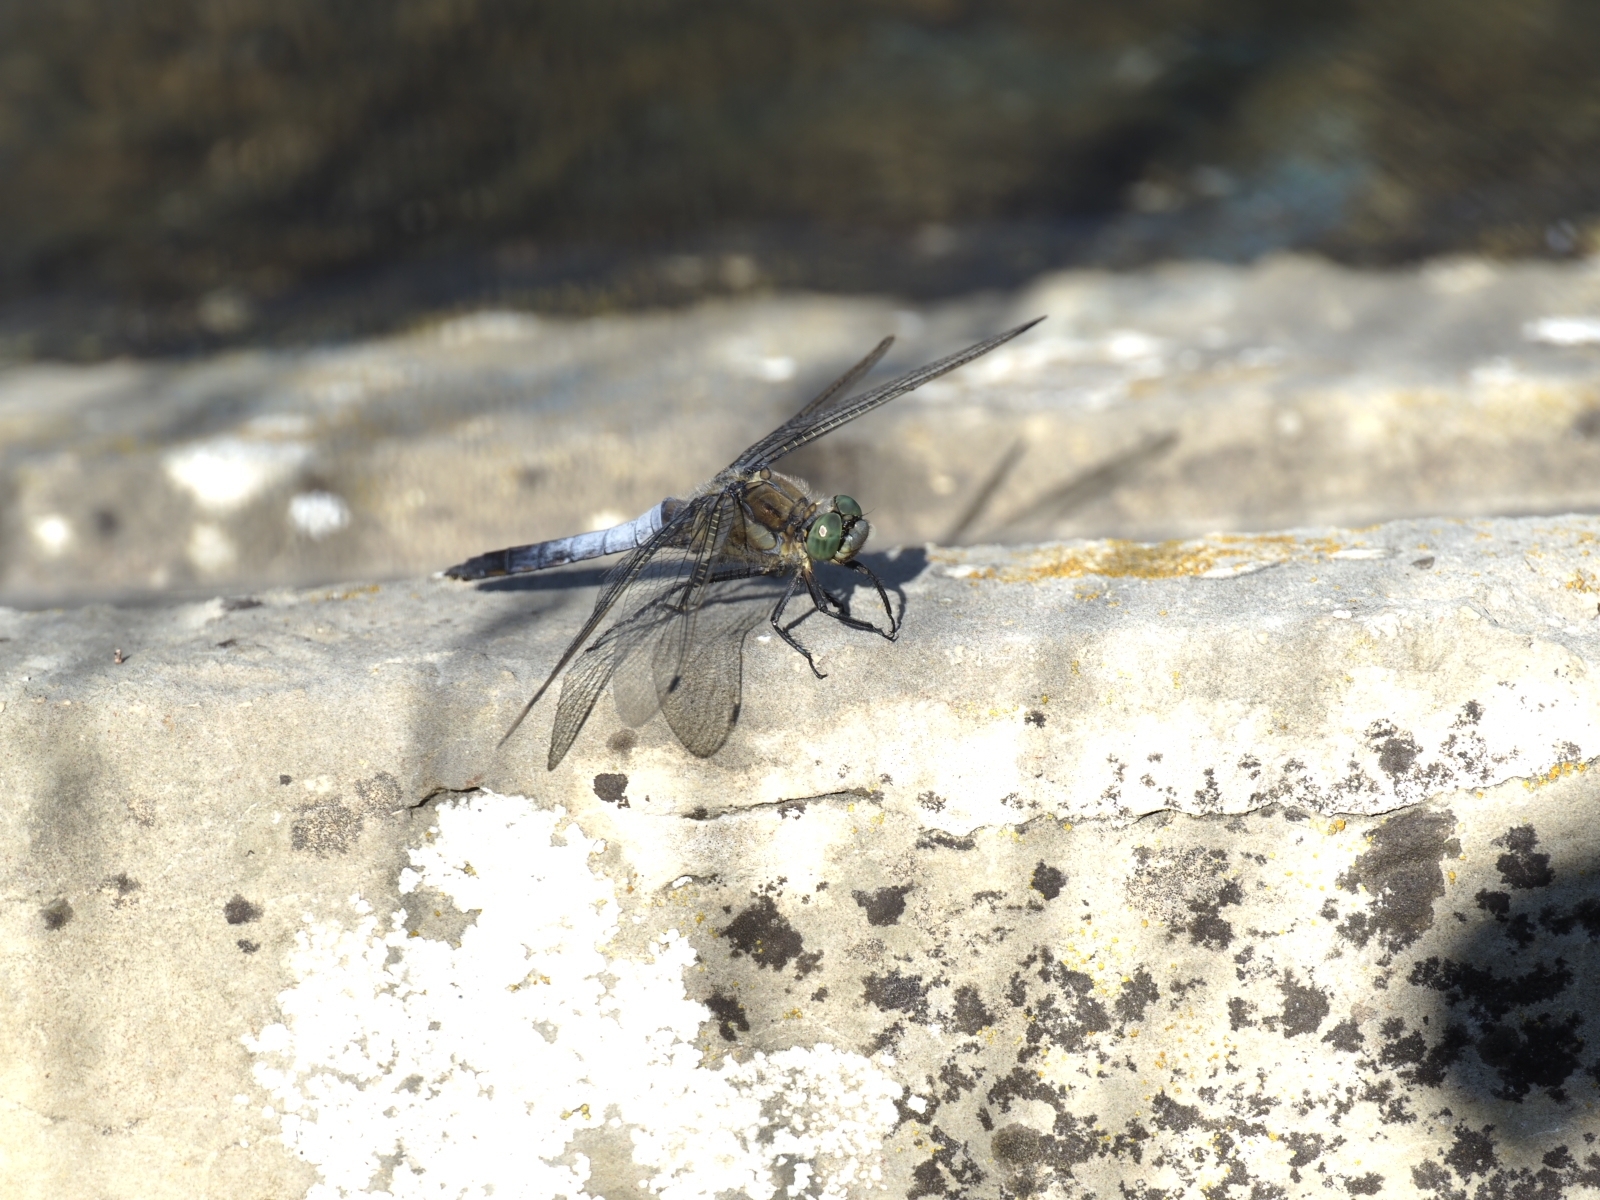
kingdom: Animalia
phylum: Arthropoda
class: Insecta
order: Odonata
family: Libellulidae
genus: Orthetrum
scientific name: Orthetrum cancellatum
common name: Black-tailed skimmer
